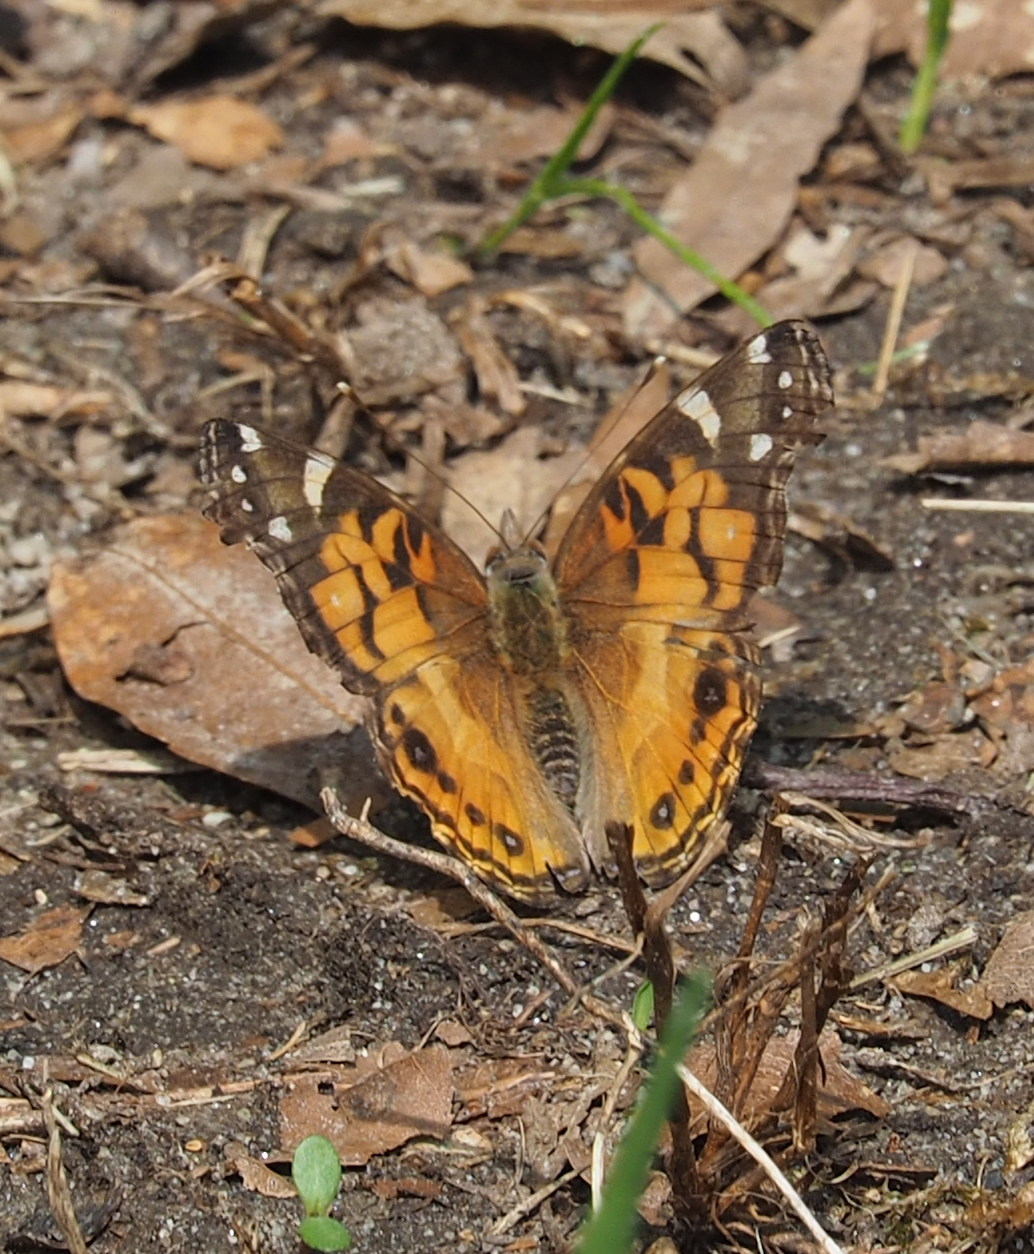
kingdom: Animalia
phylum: Arthropoda
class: Insecta
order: Lepidoptera
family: Nymphalidae
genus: Vanessa
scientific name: Vanessa virginiensis
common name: American lady
